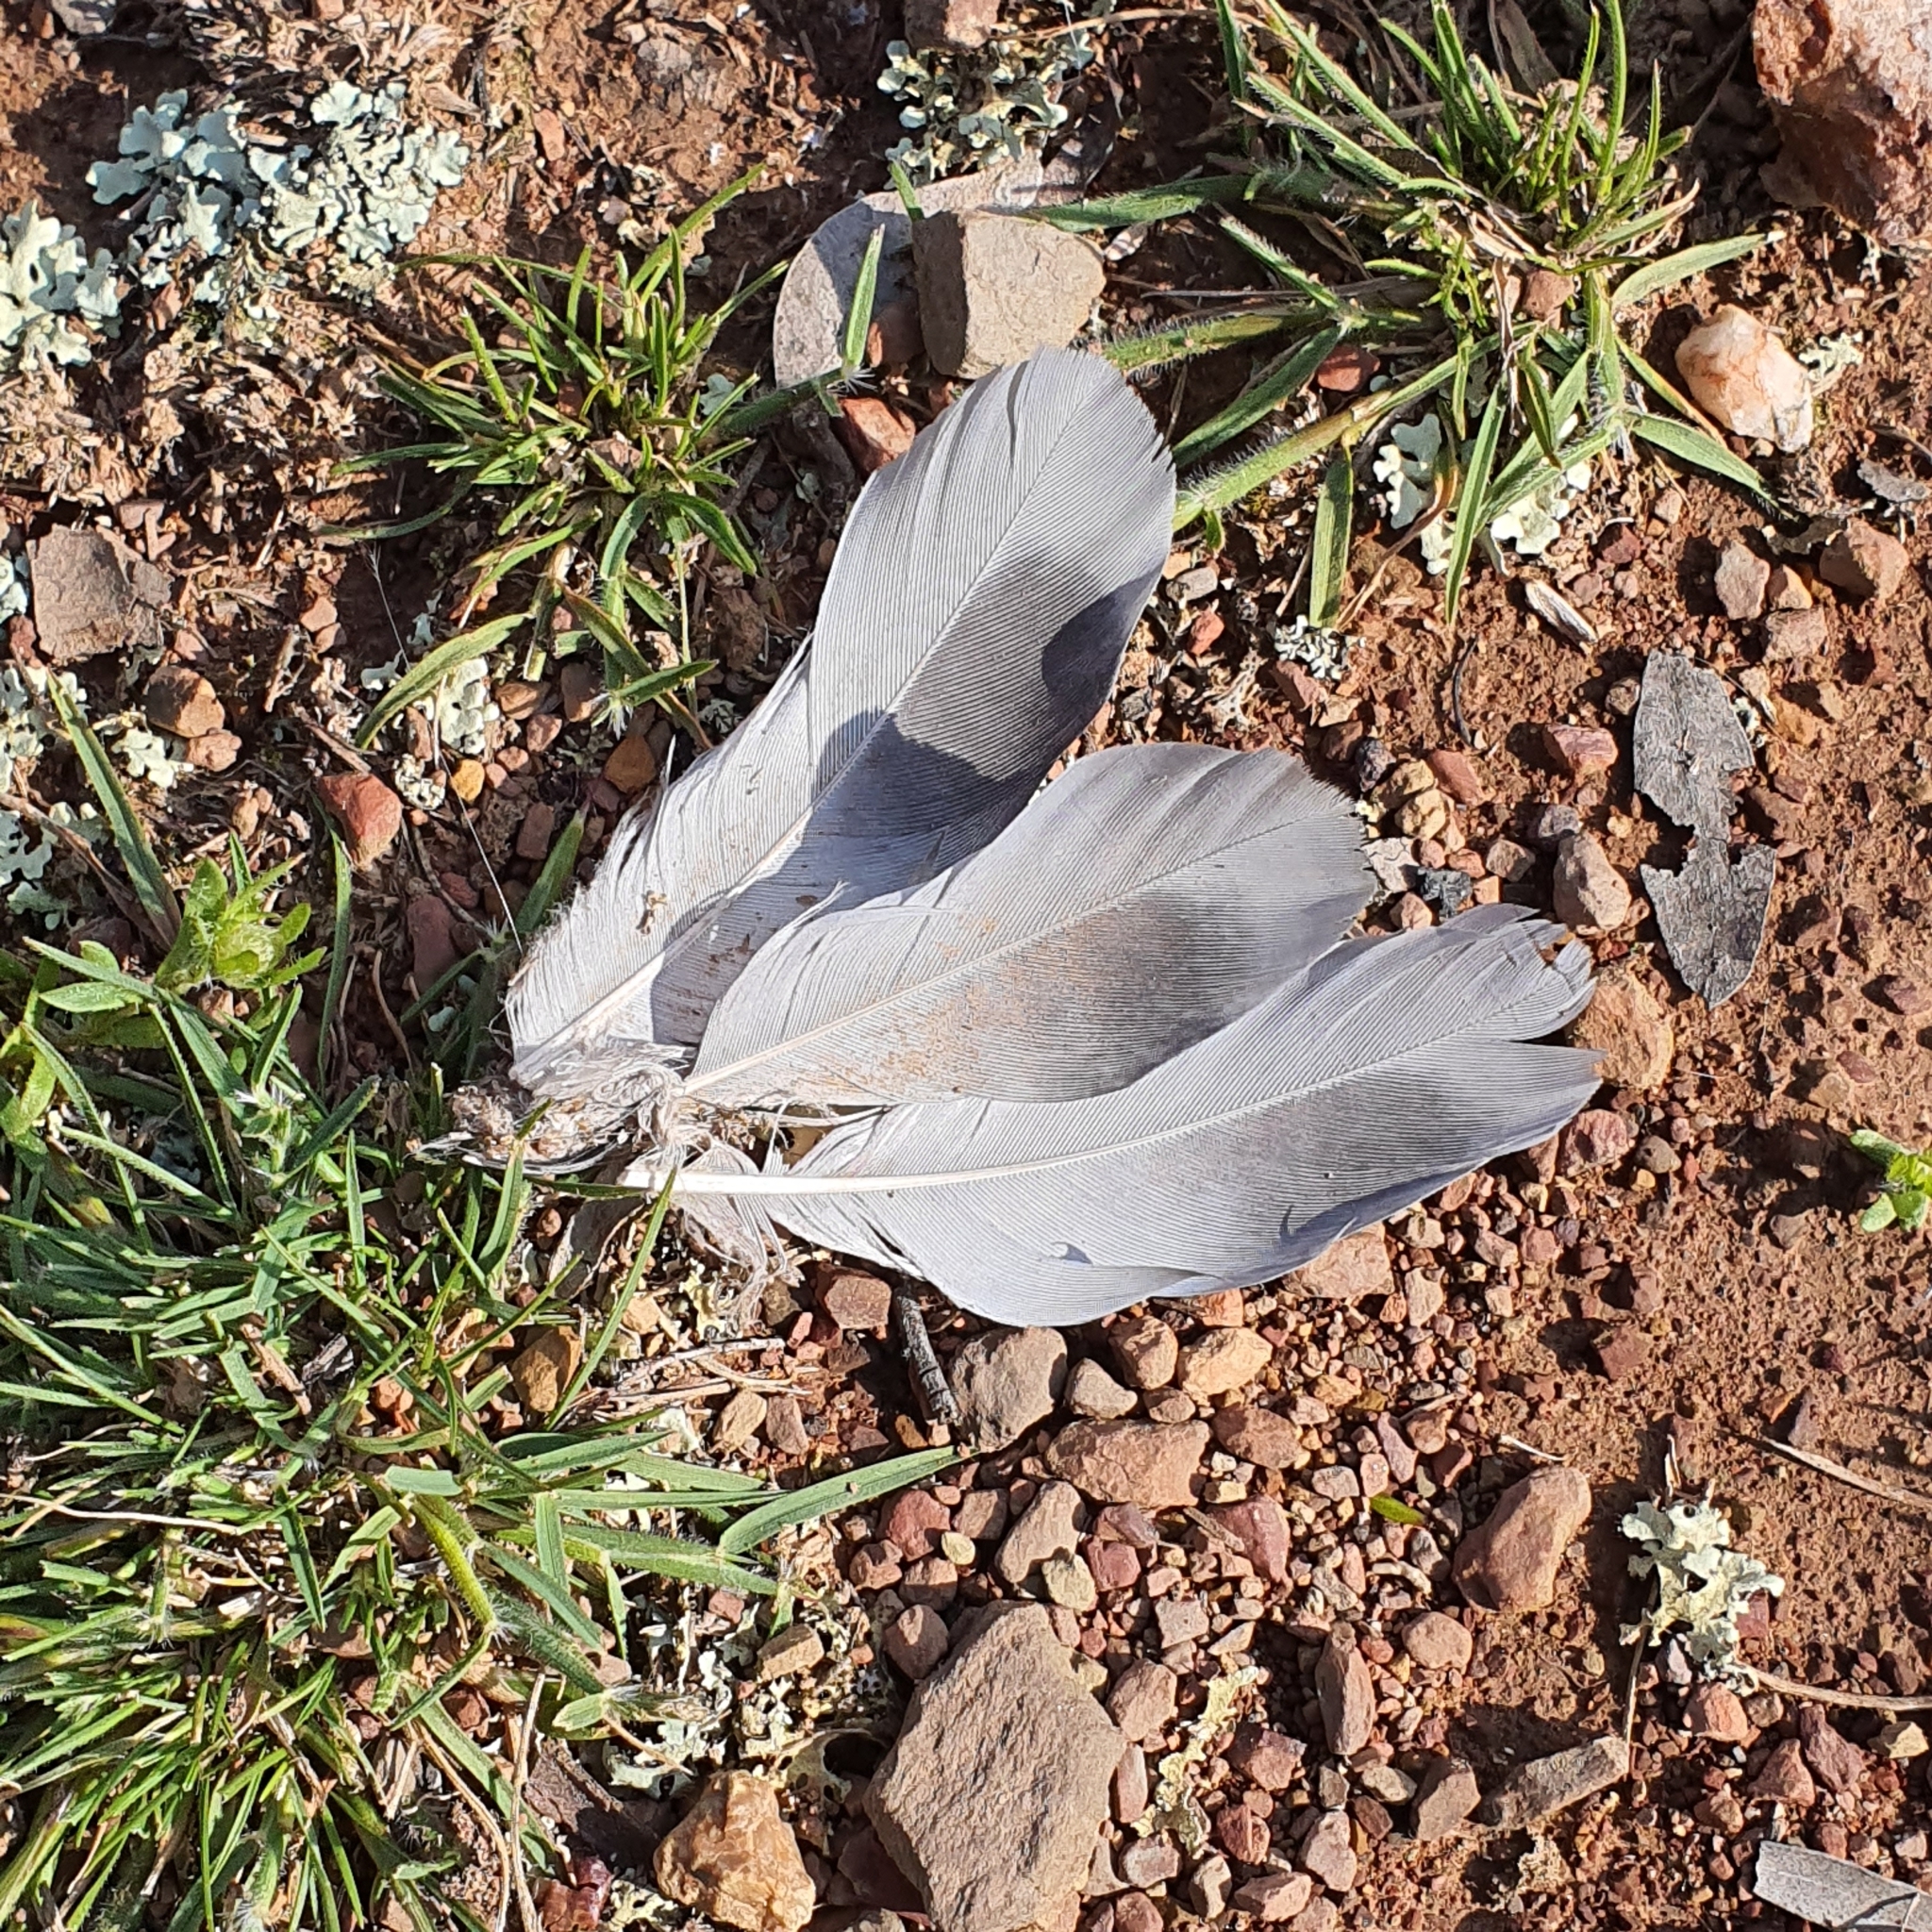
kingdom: Animalia
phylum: Chordata
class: Aves
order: Columbiformes
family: Columbidae
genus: Columba
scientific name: Columba livia
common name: Rock pigeon
